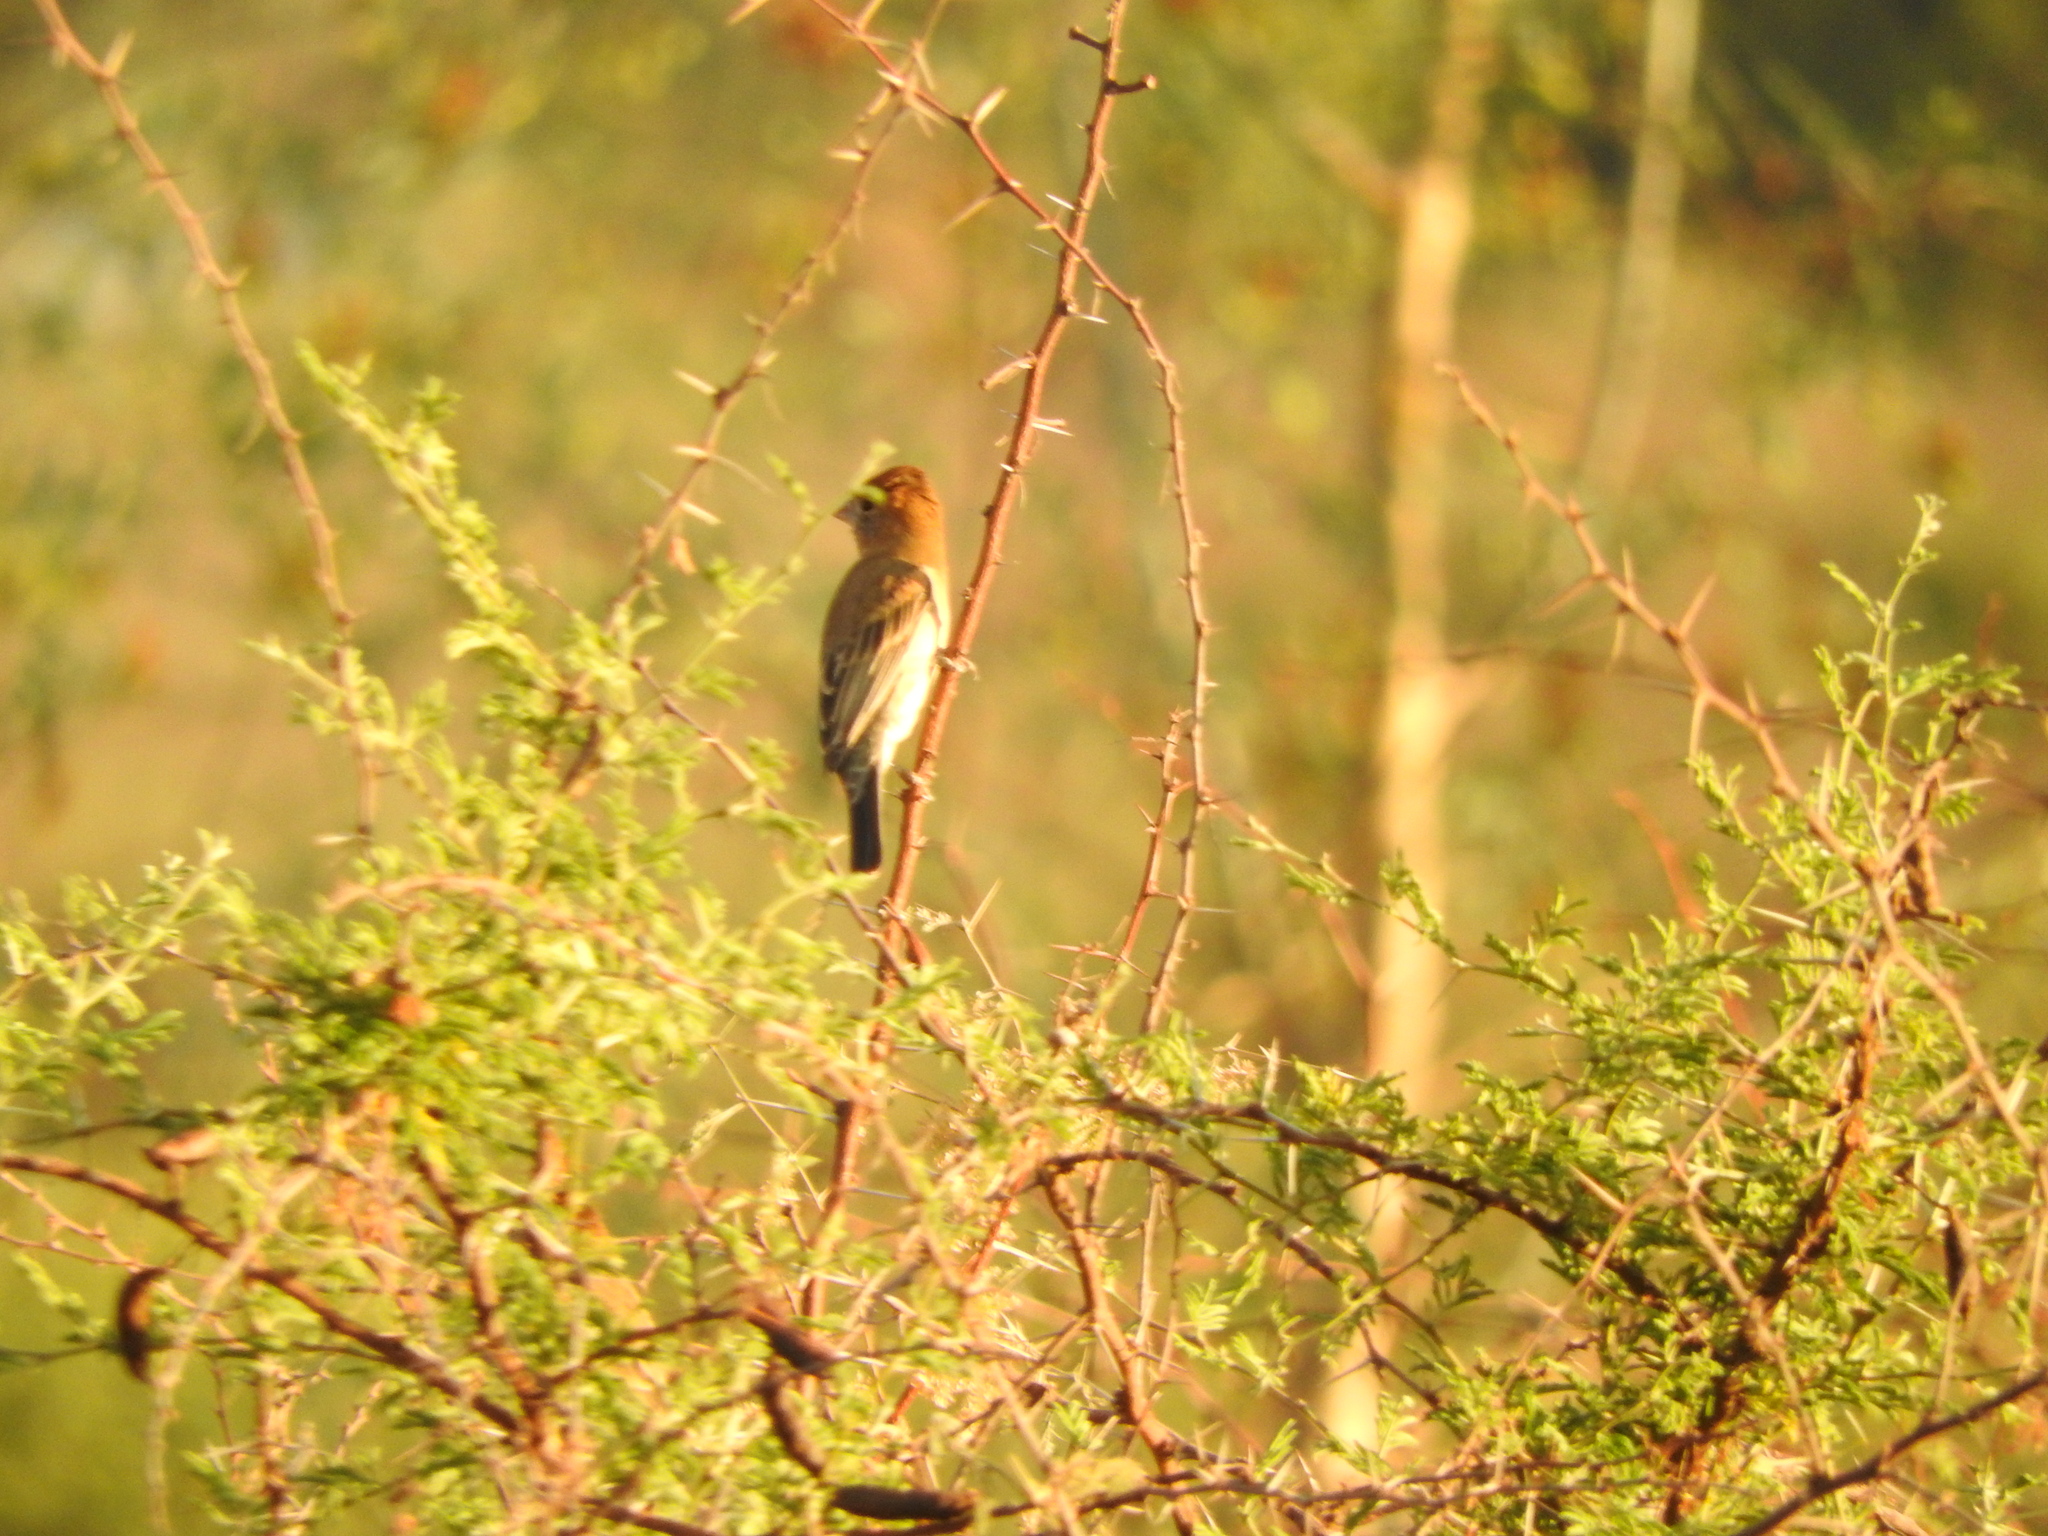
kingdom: Animalia
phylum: Chordata
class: Aves
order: Passeriformes
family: Cardinalidae
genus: Passerina
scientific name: Passerina caerulea
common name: Blue grosbeak
